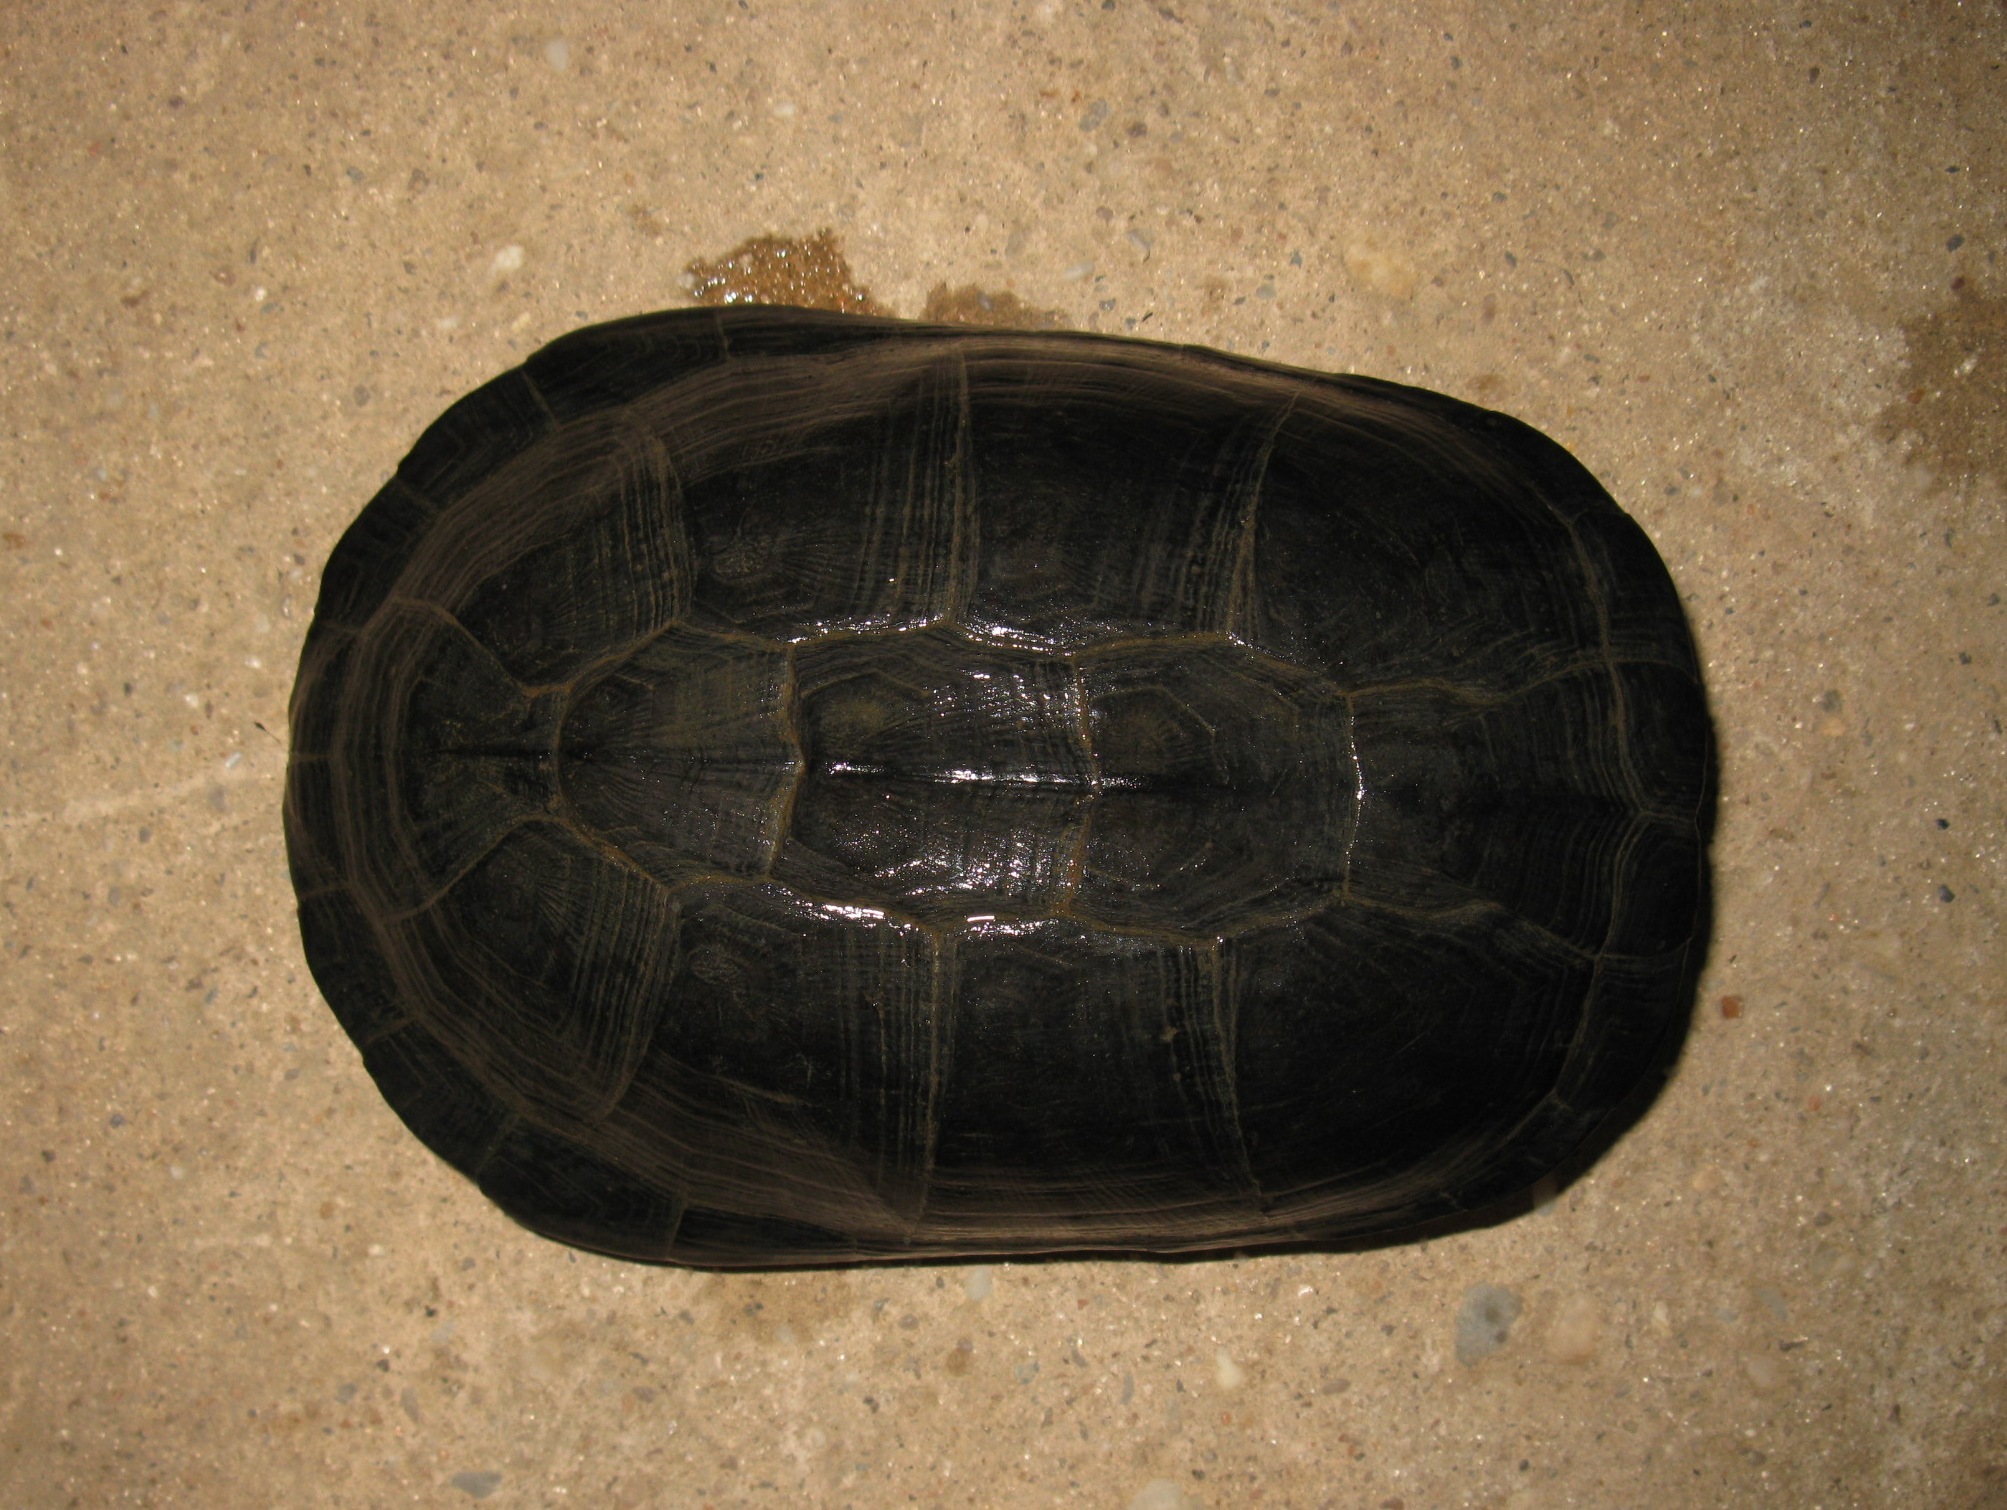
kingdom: Animalia
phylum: Chordata
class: Testudines
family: Pelomedusidae
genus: Pelusios
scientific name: Pelusios castaneus
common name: West african mud turtle
